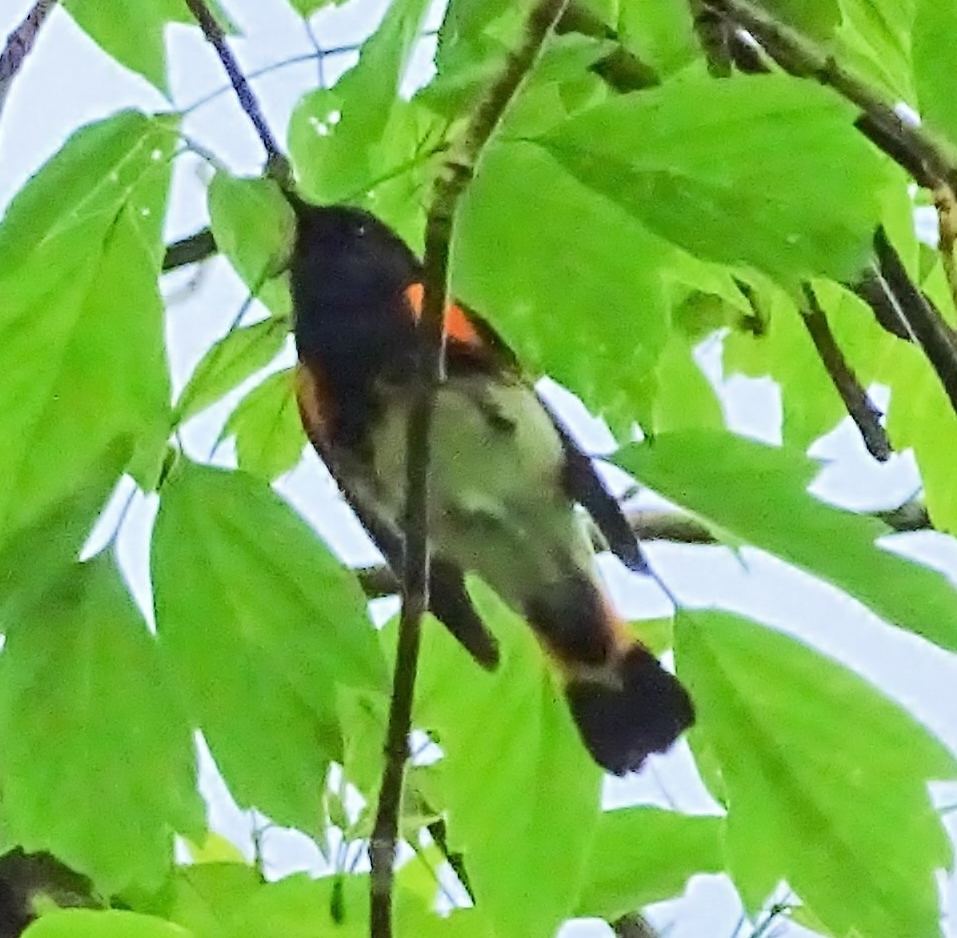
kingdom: Animalia
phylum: Chordata
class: Aves
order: Passeriformes
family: Parulidae
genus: Setophaga
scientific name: Setophaga ruticilla
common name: American redstart
